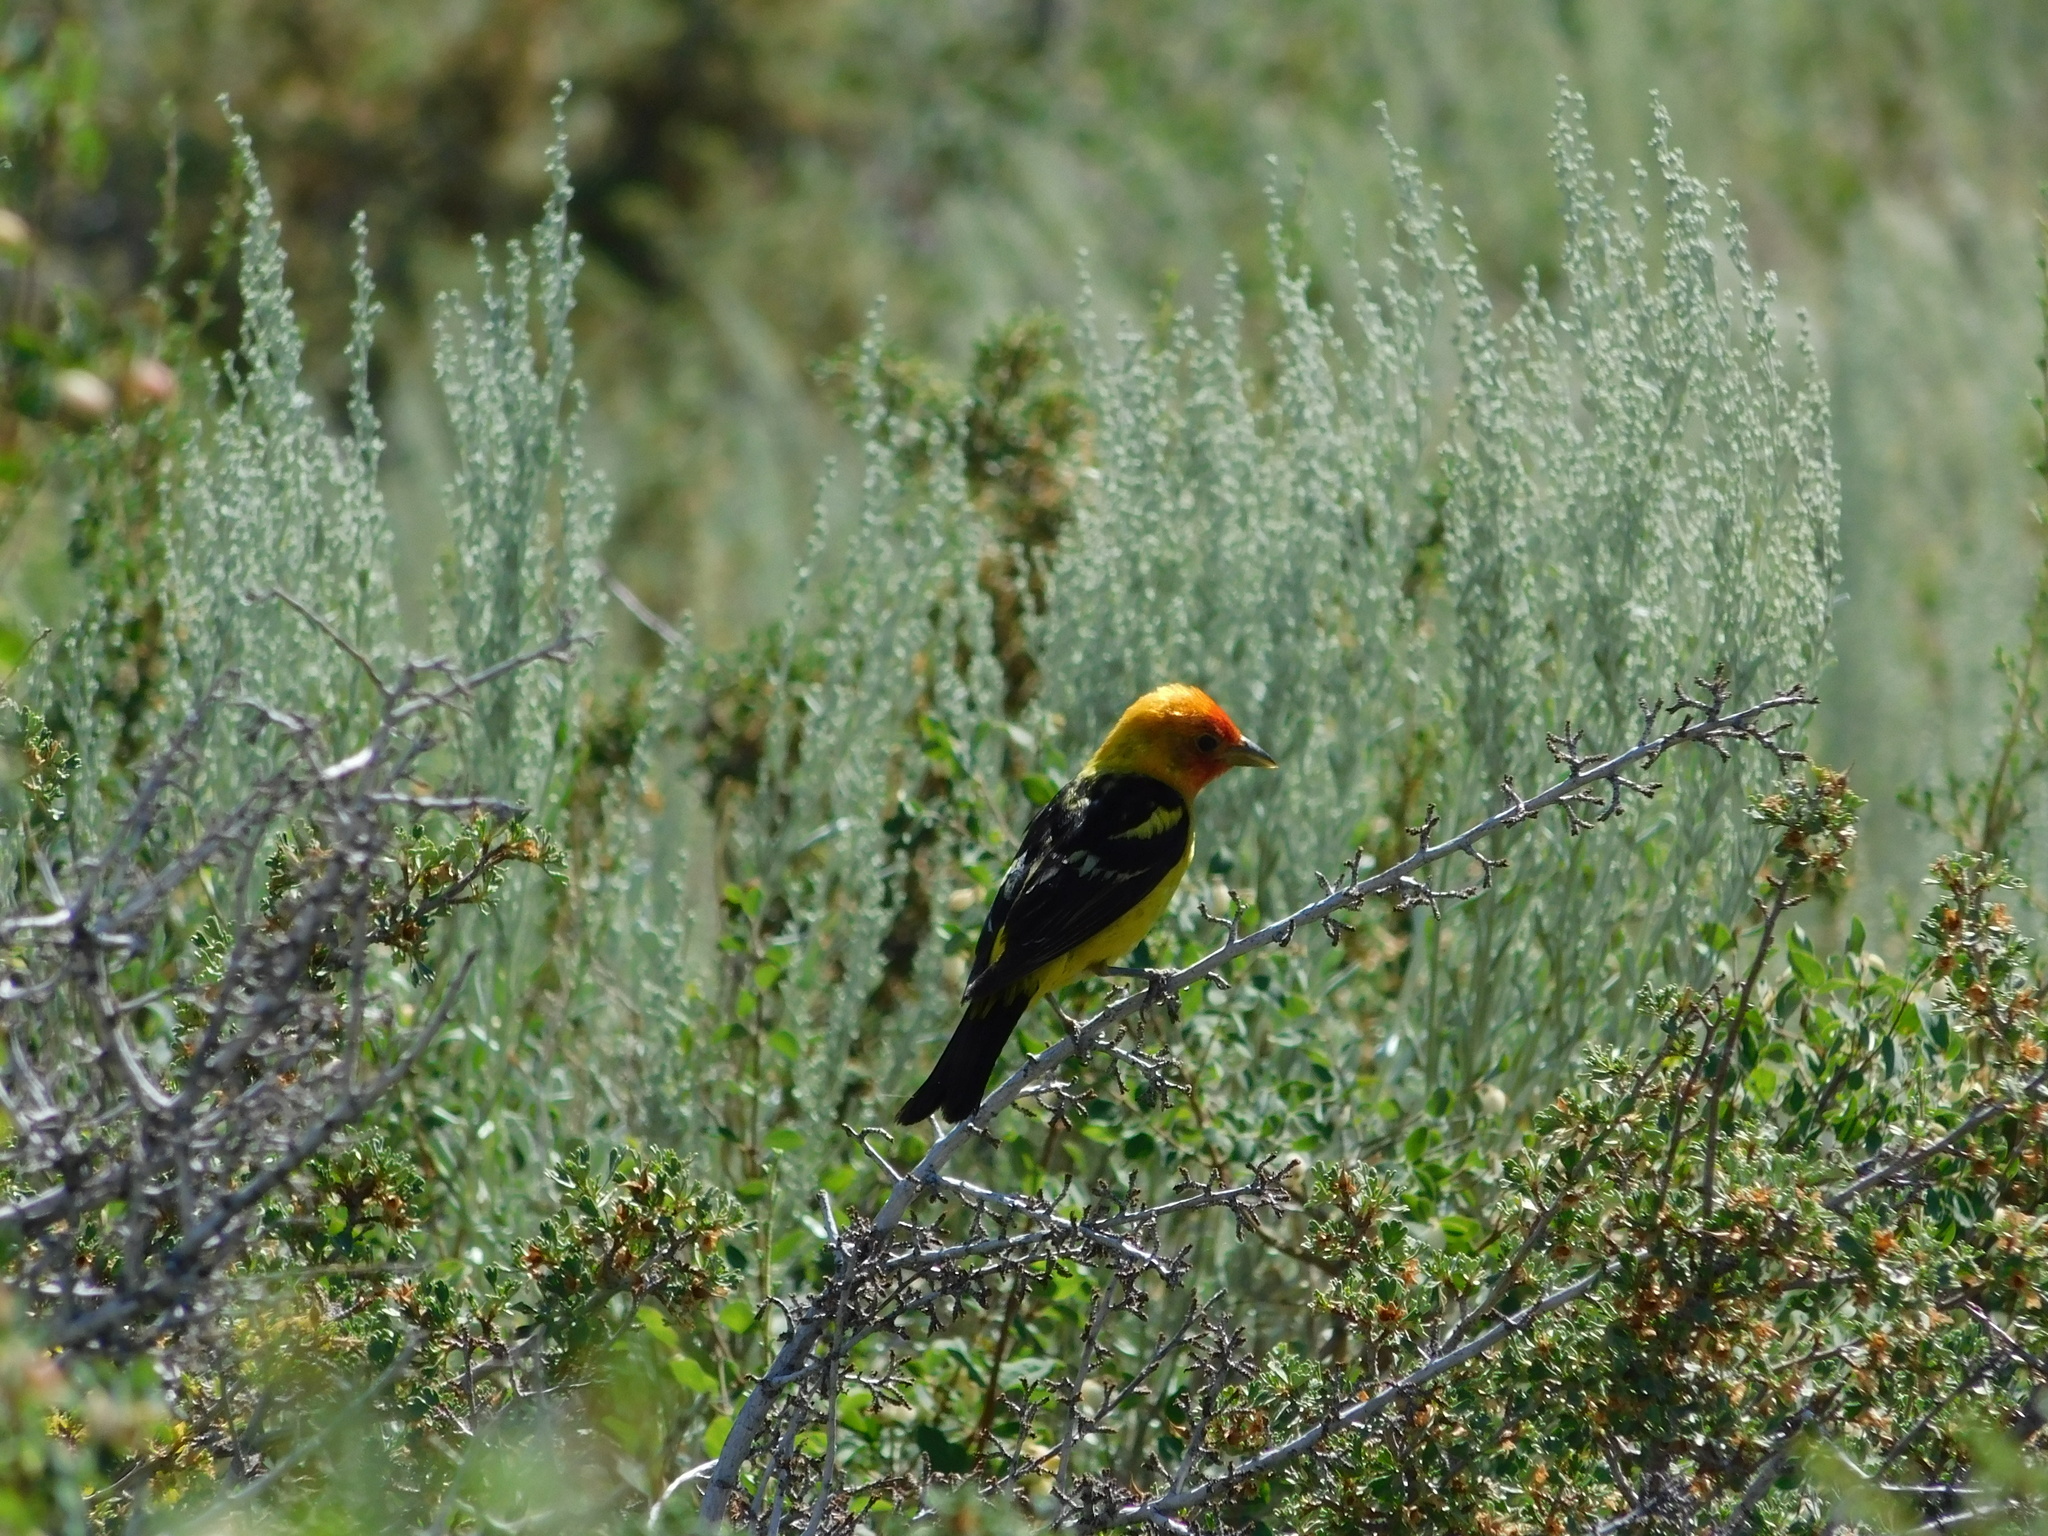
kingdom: Animalia
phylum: Chordata
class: Aves
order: Passeriformes
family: Cardinalidae
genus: Piranga
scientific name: Piranga ludoviciana
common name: Western tanager
